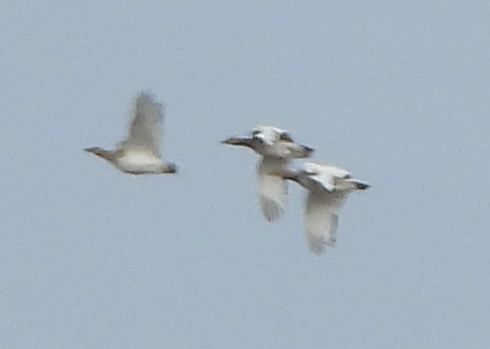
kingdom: Animalia
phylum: Chordata
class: Aves
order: Otidiformes
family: Otididae
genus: Tetrax
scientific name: Tetrax tetrax
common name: Little bustard
